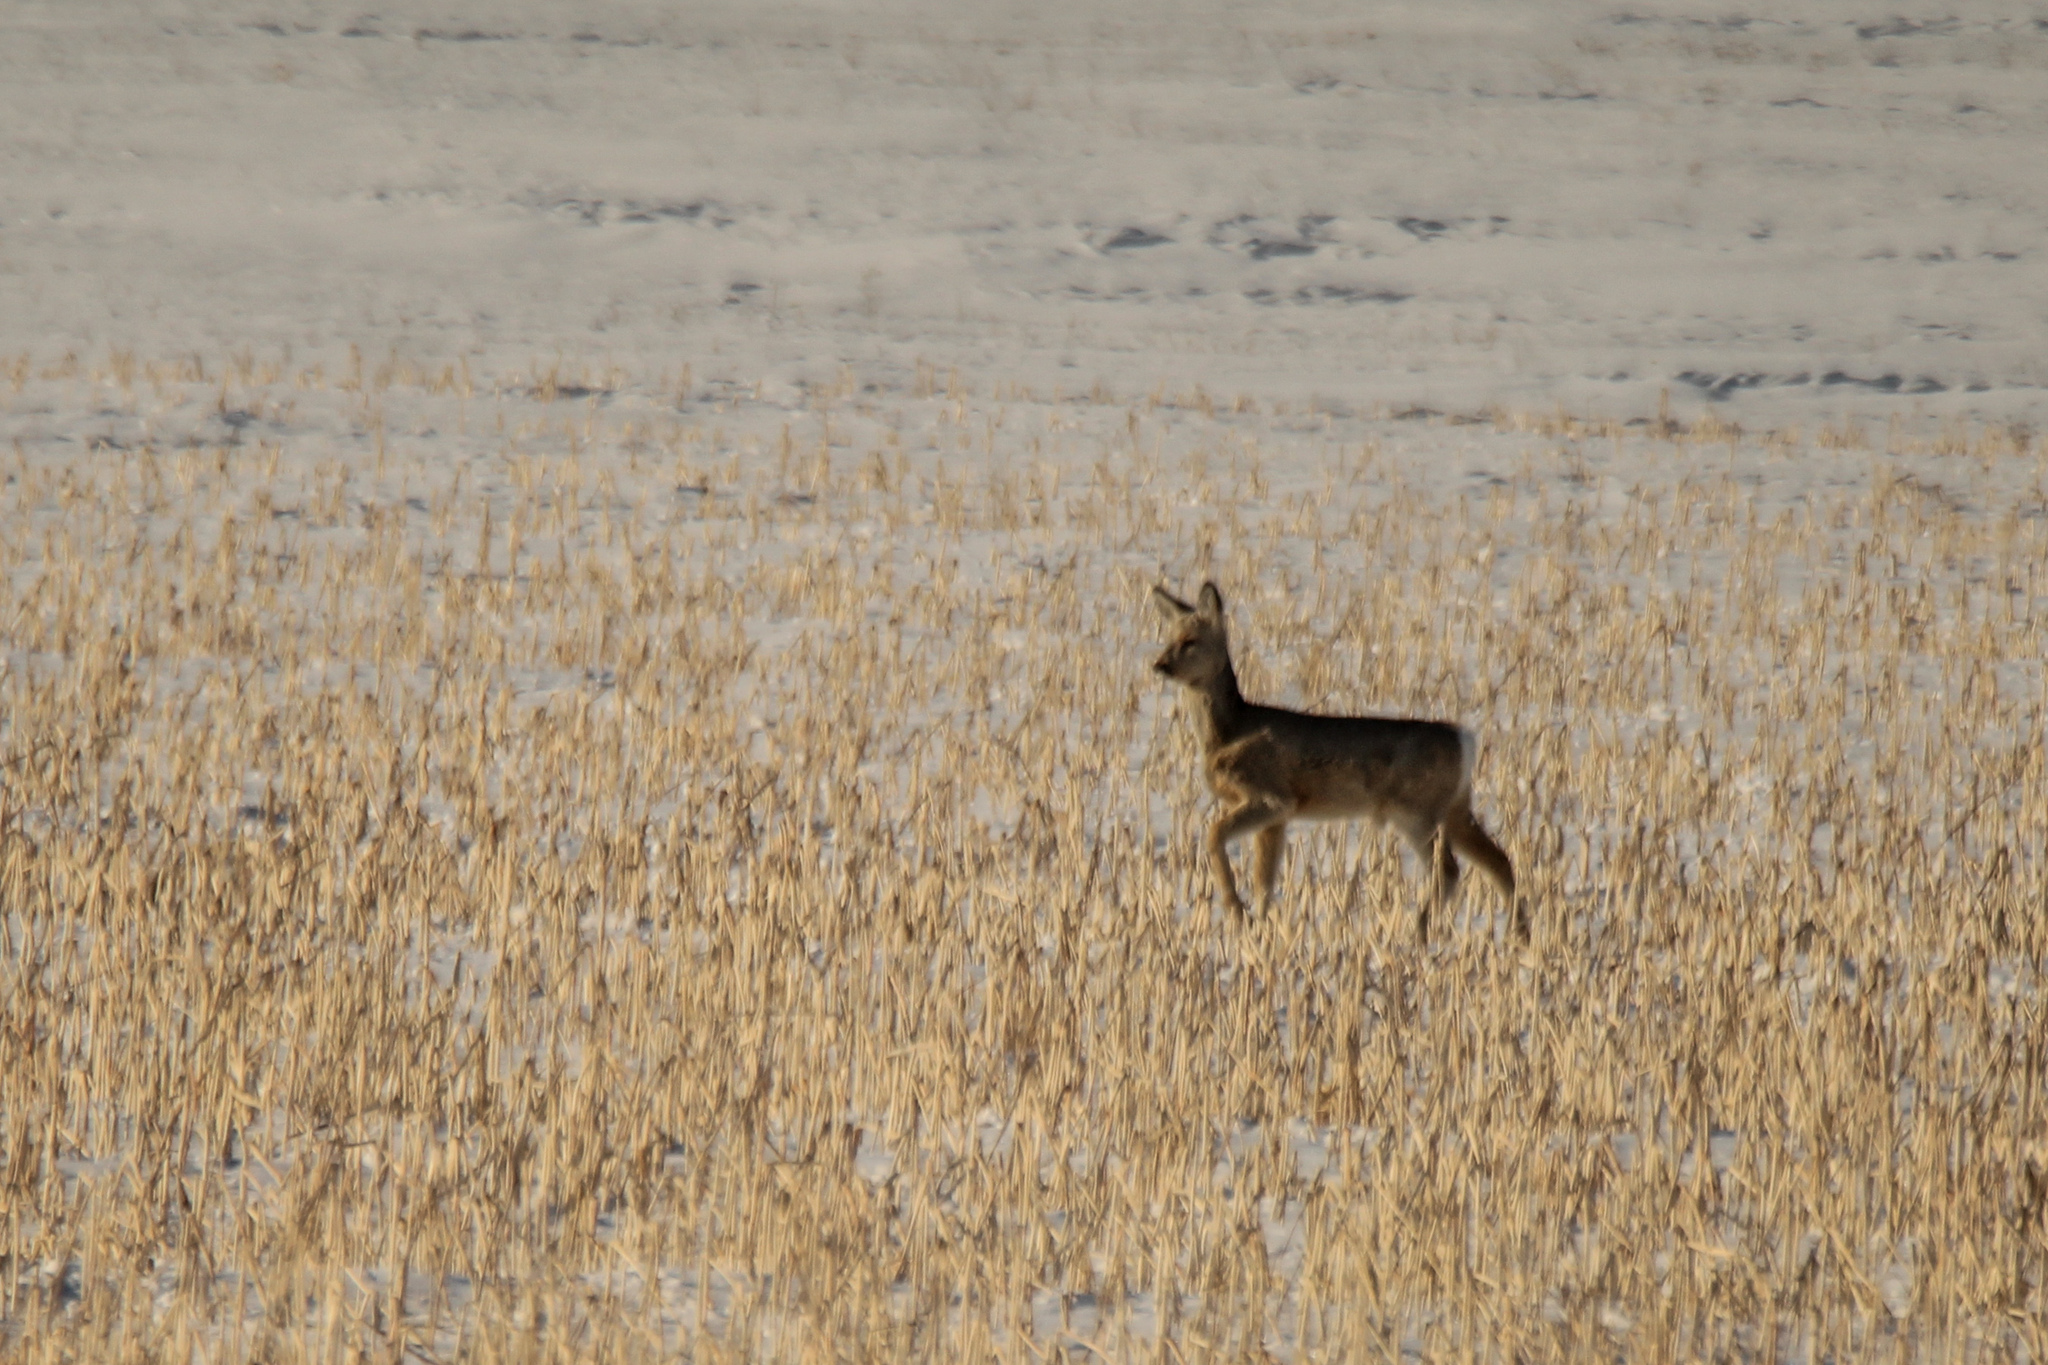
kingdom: Animalia
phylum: Chordata
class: Mammalia
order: Artiodactyla
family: Cervidae
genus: Capreolus
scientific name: Capreolus pygargus
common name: Siberian roe
